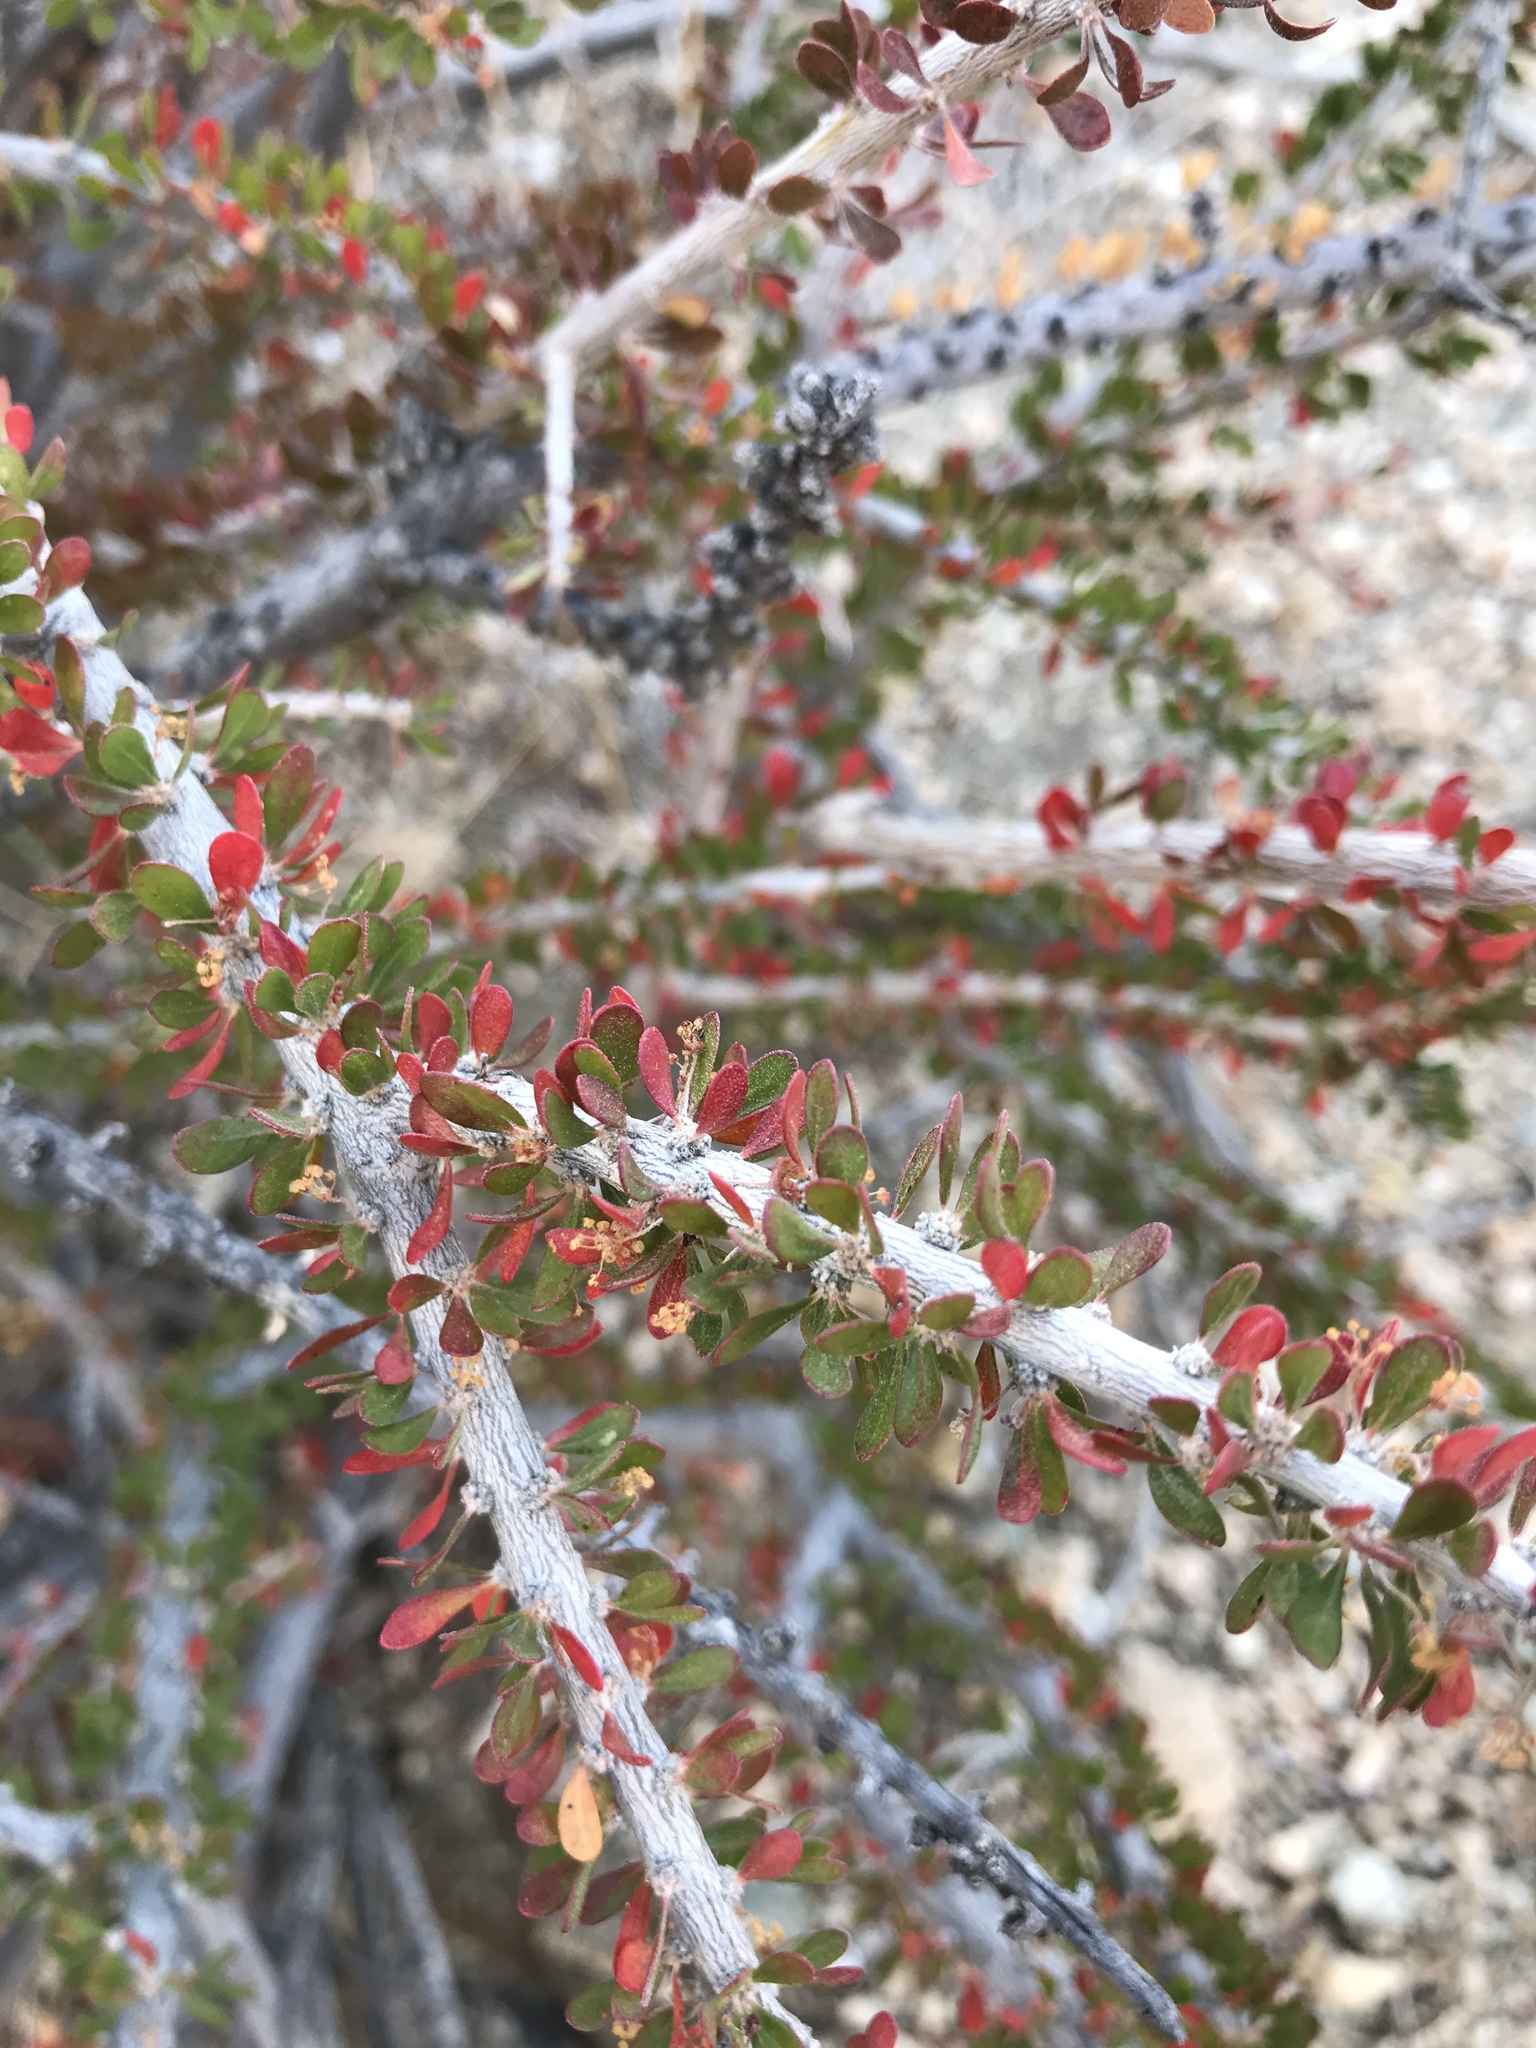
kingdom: Plantae
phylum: Tracheophyta
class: Magnoliopsida
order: Malpighiales
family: Picrodendraceae
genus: Tetracoccus
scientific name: Tetracoccus hallii
